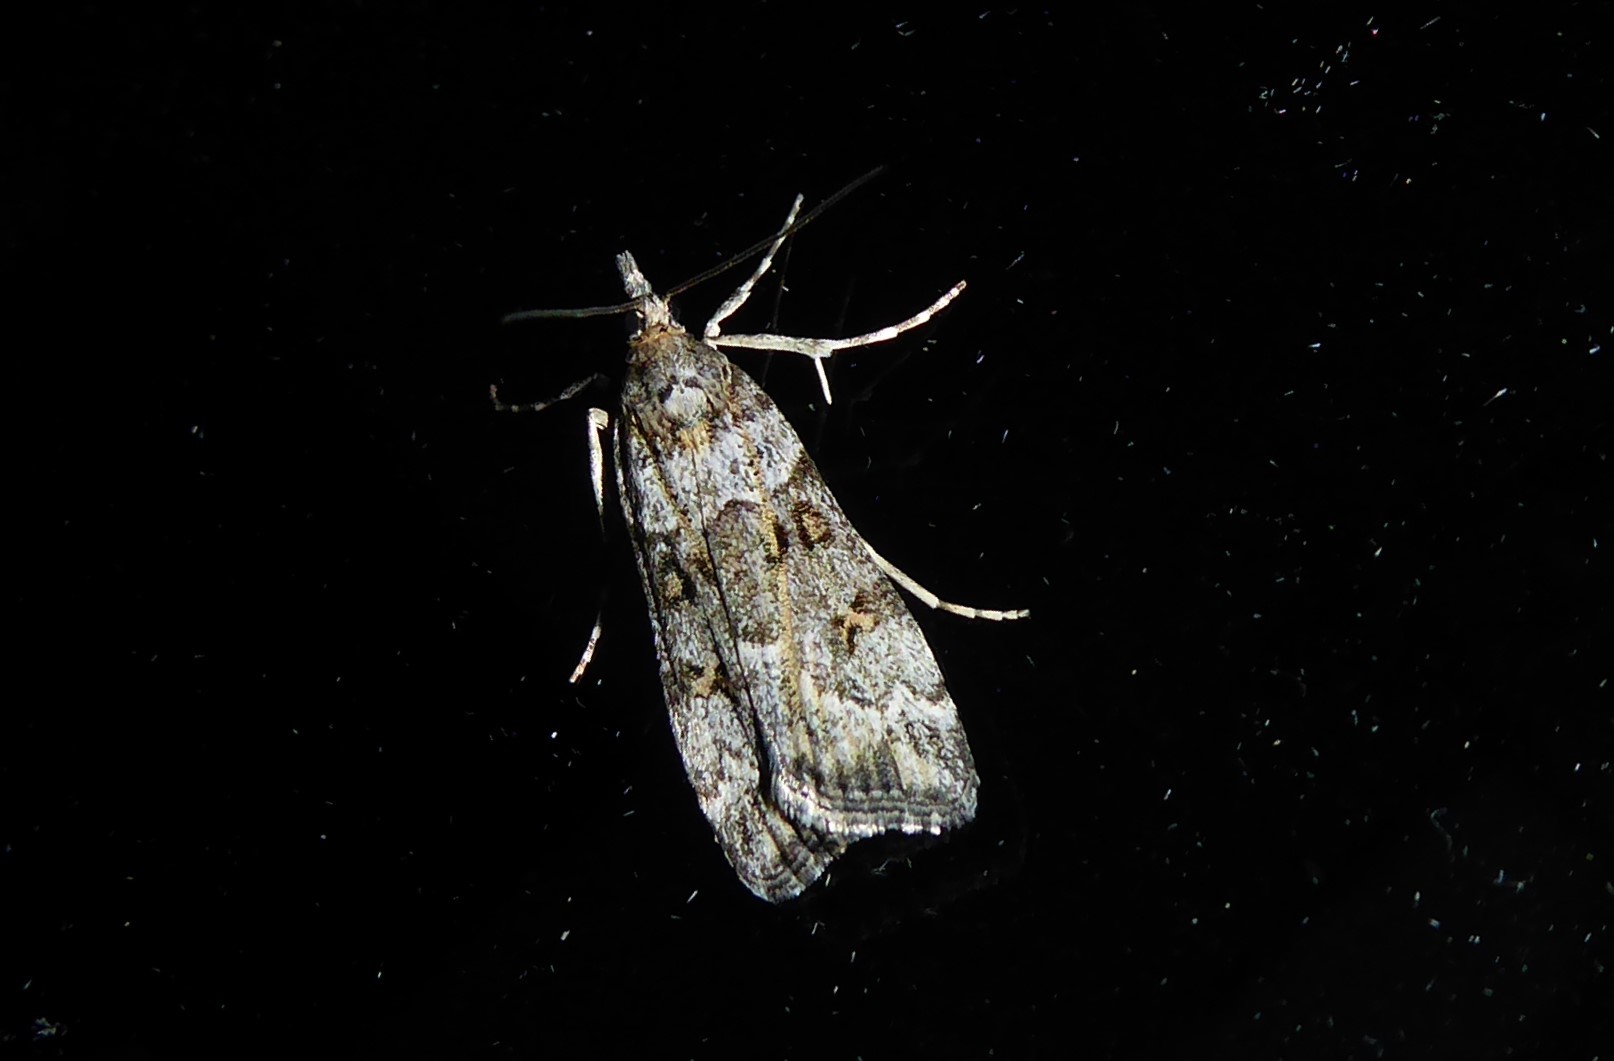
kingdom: Animalia
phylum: Arthropoda
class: Insecta
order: Lepidoptera
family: Crambidae
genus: Eudonia
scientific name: Eudonia diphtheralis
